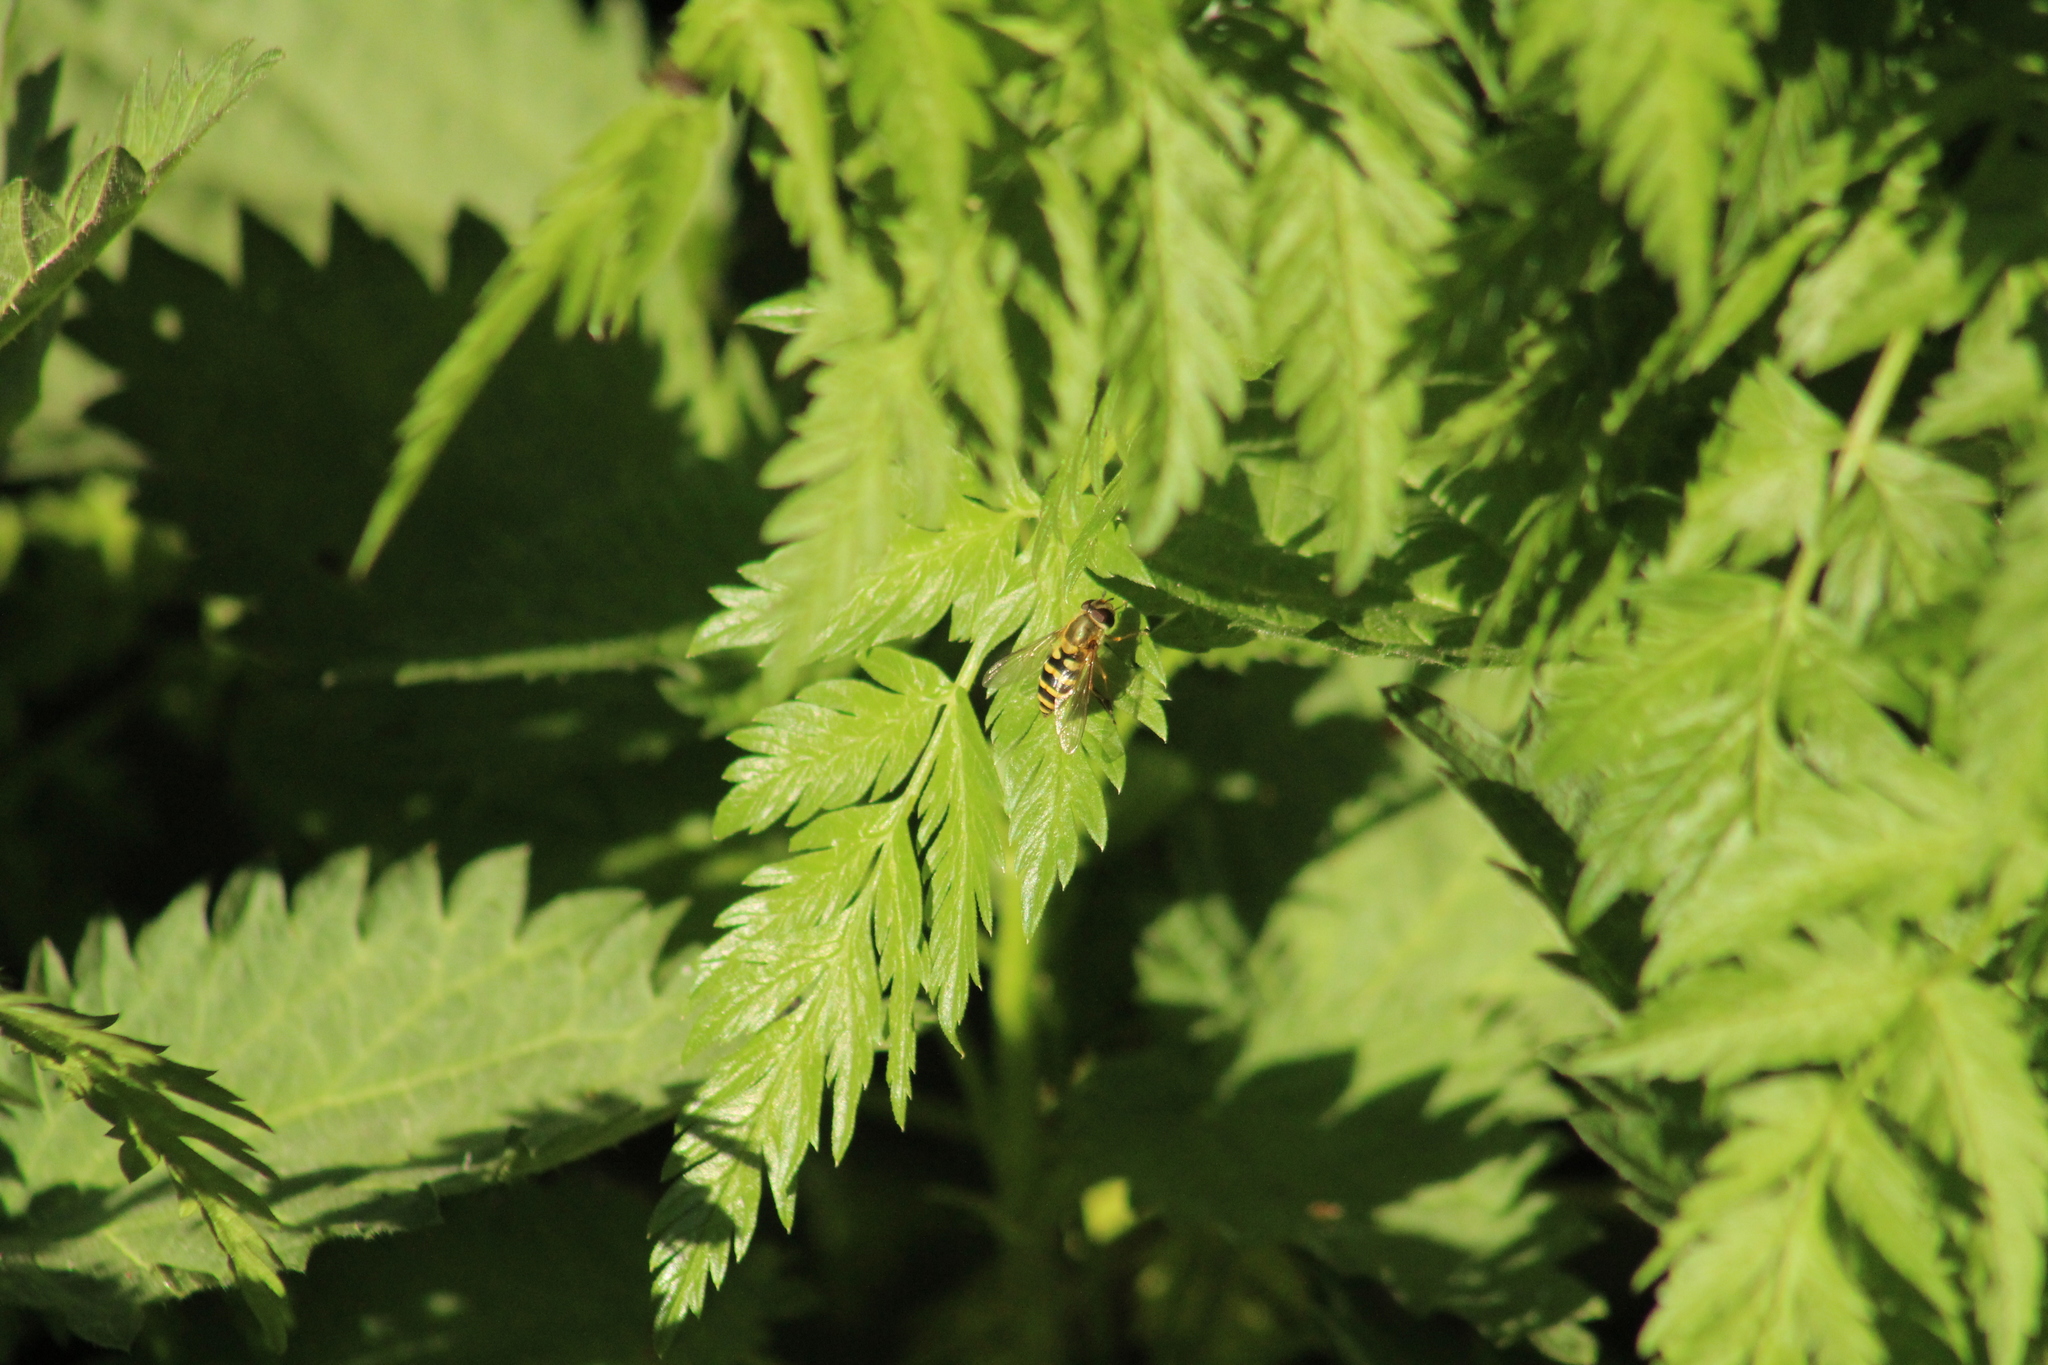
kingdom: Animalia
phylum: Arthropoda
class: Insecta
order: Diptera
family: Syrphidae
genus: Syrphus
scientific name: Syrphus
